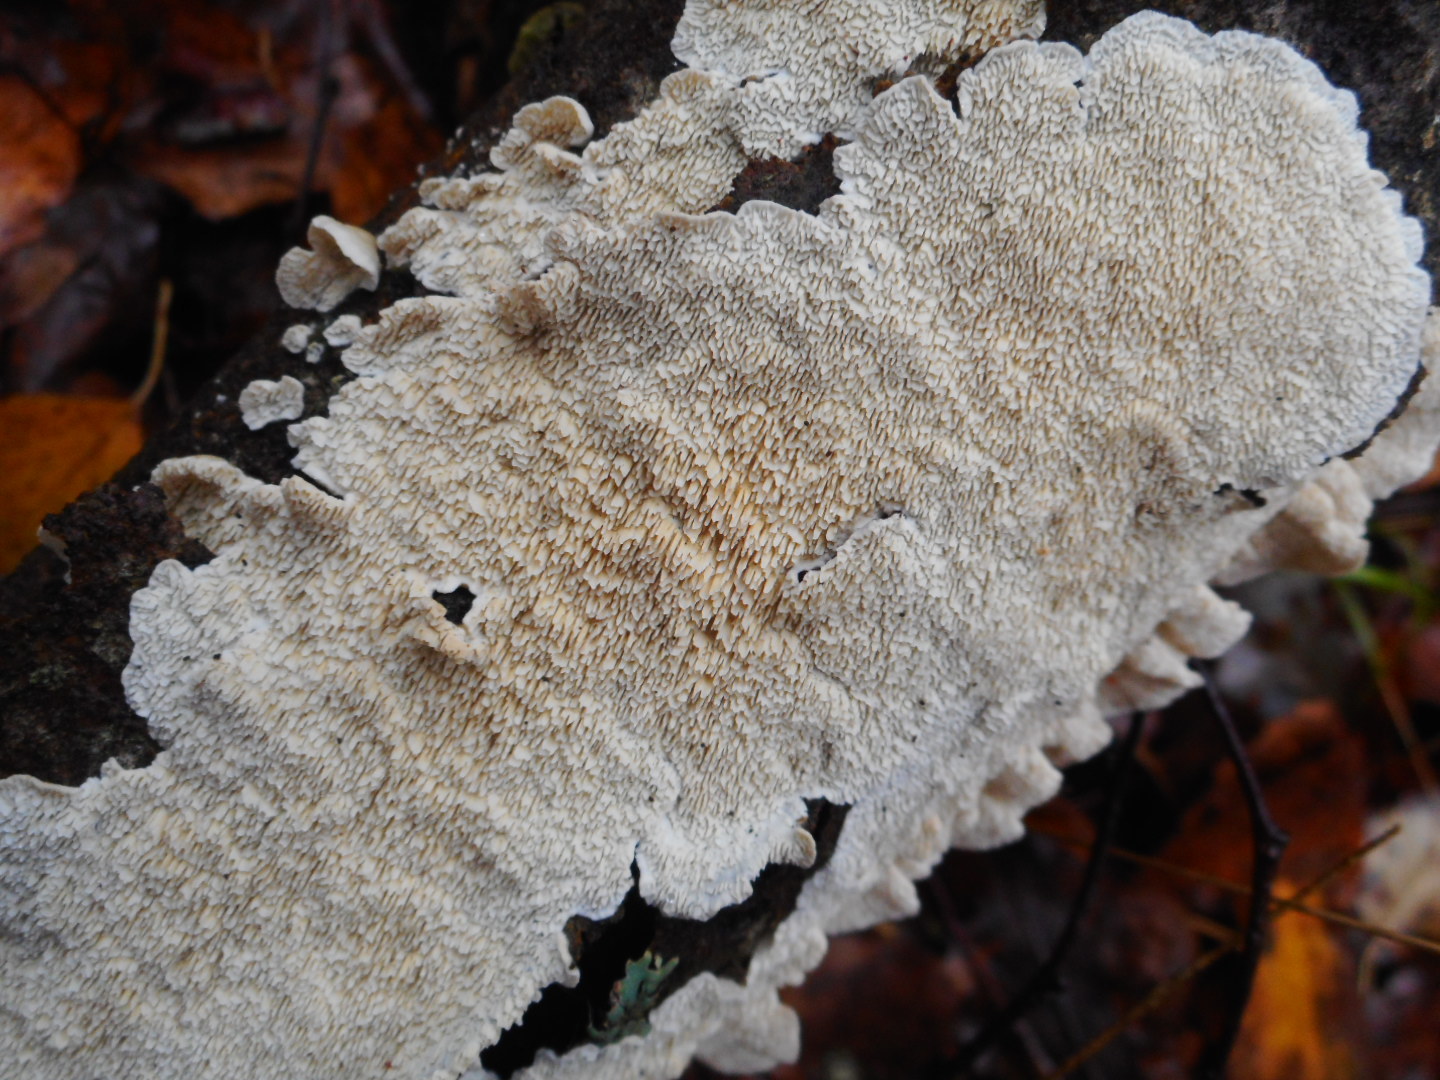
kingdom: Fungi
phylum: Basidiomycota
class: Agaricomycetes
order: Polyporales
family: Irpicaceae
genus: Irpex
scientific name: Irpex lacteus
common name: Milk-white toothed polypore
